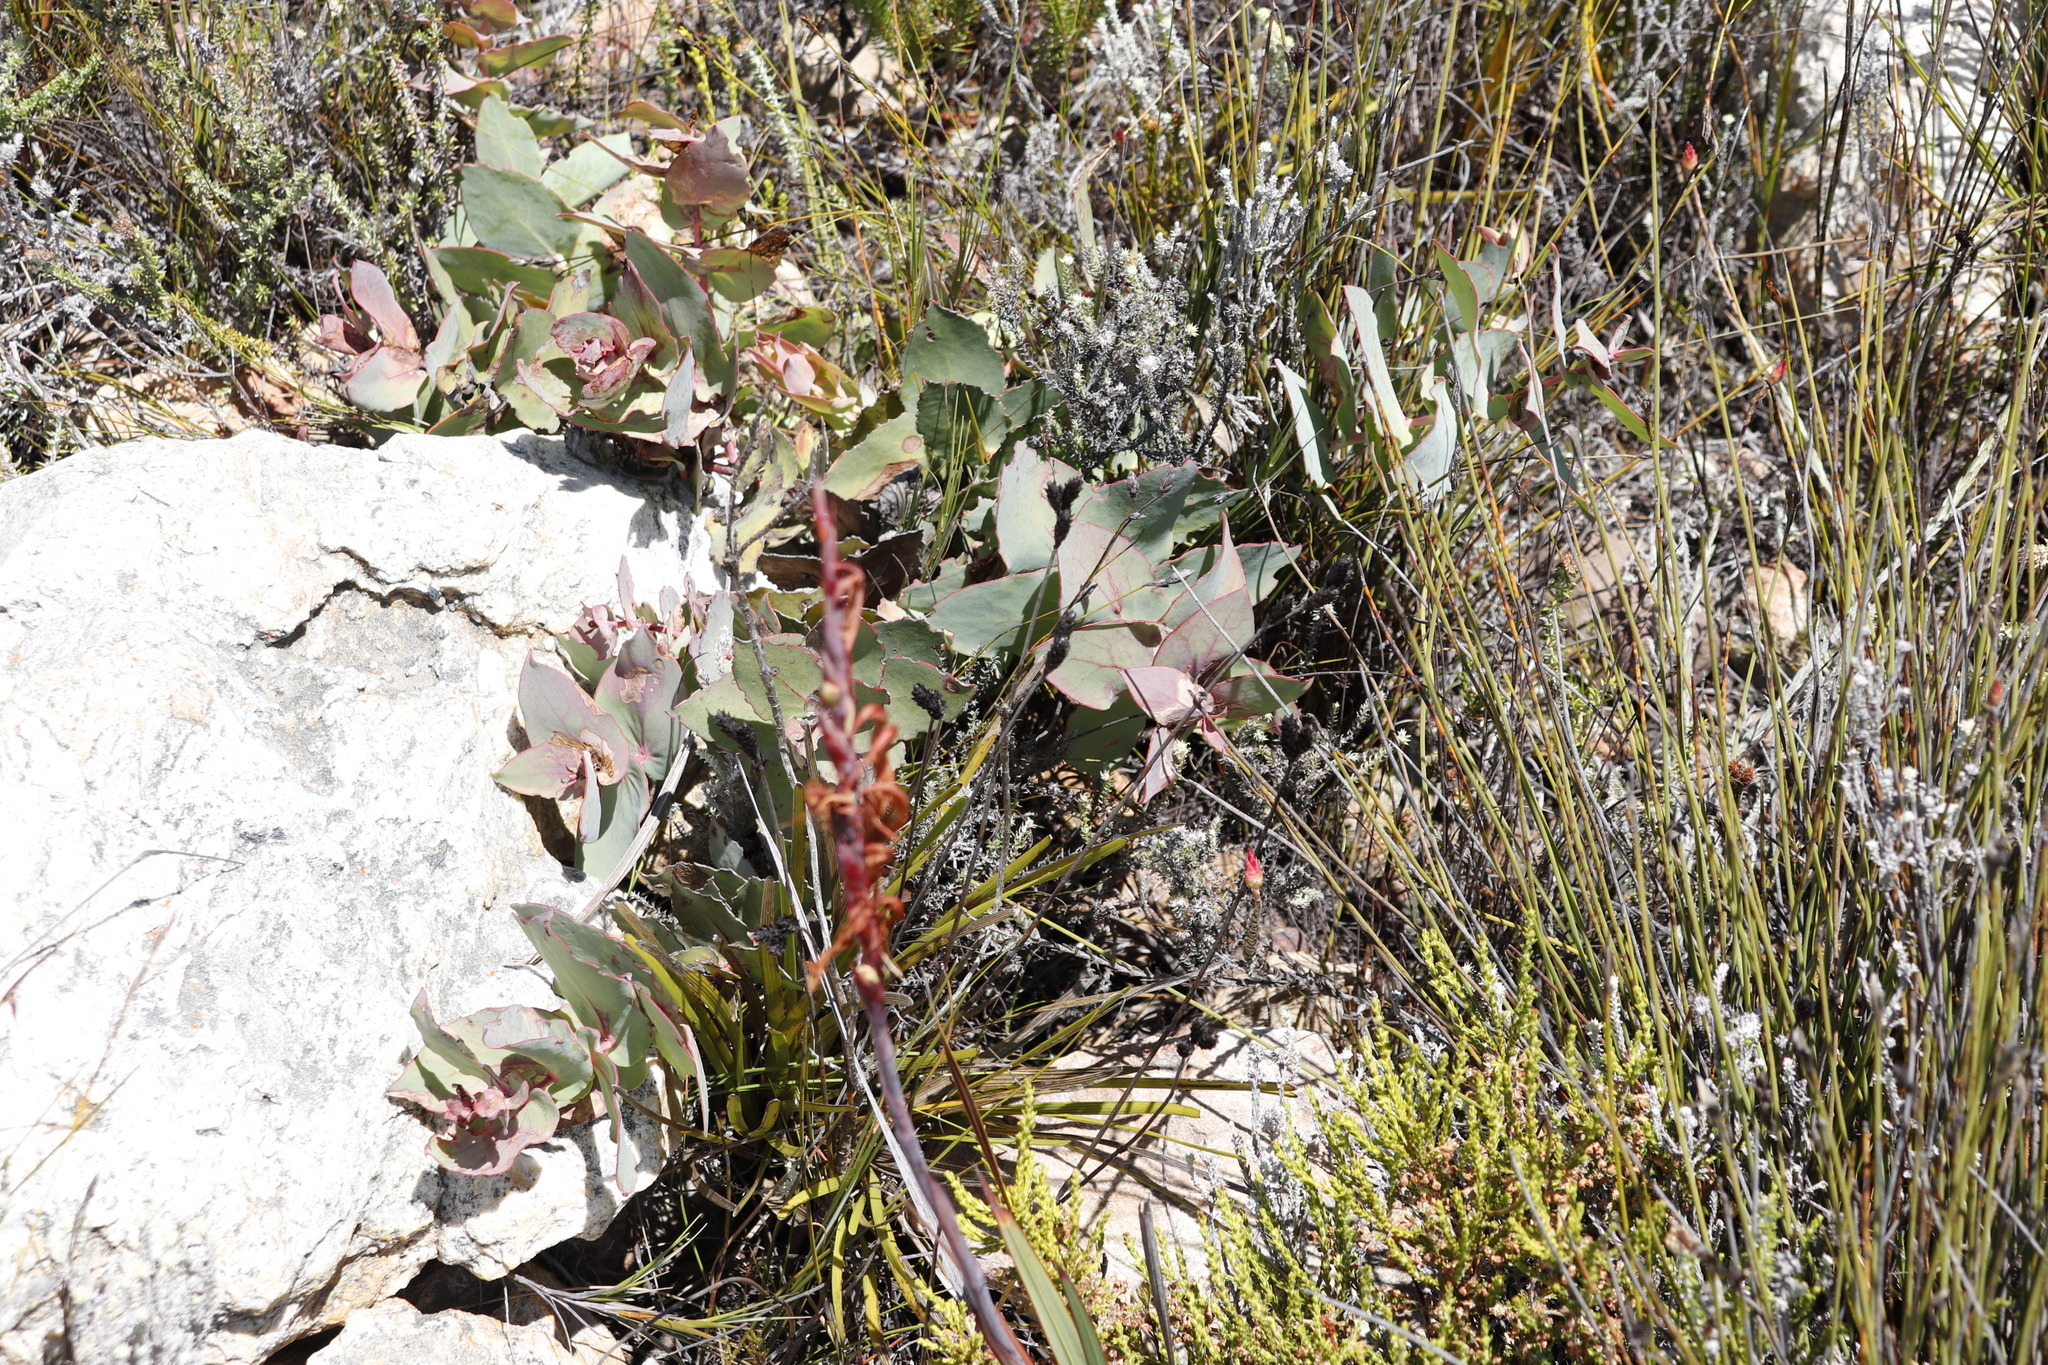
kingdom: Plantae
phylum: Tracheophyta
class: Magnoliopsida
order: Proteales
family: Proteaceae
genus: Protea
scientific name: Protea amplexicaulis
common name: Clasping-leaf sugarbush
